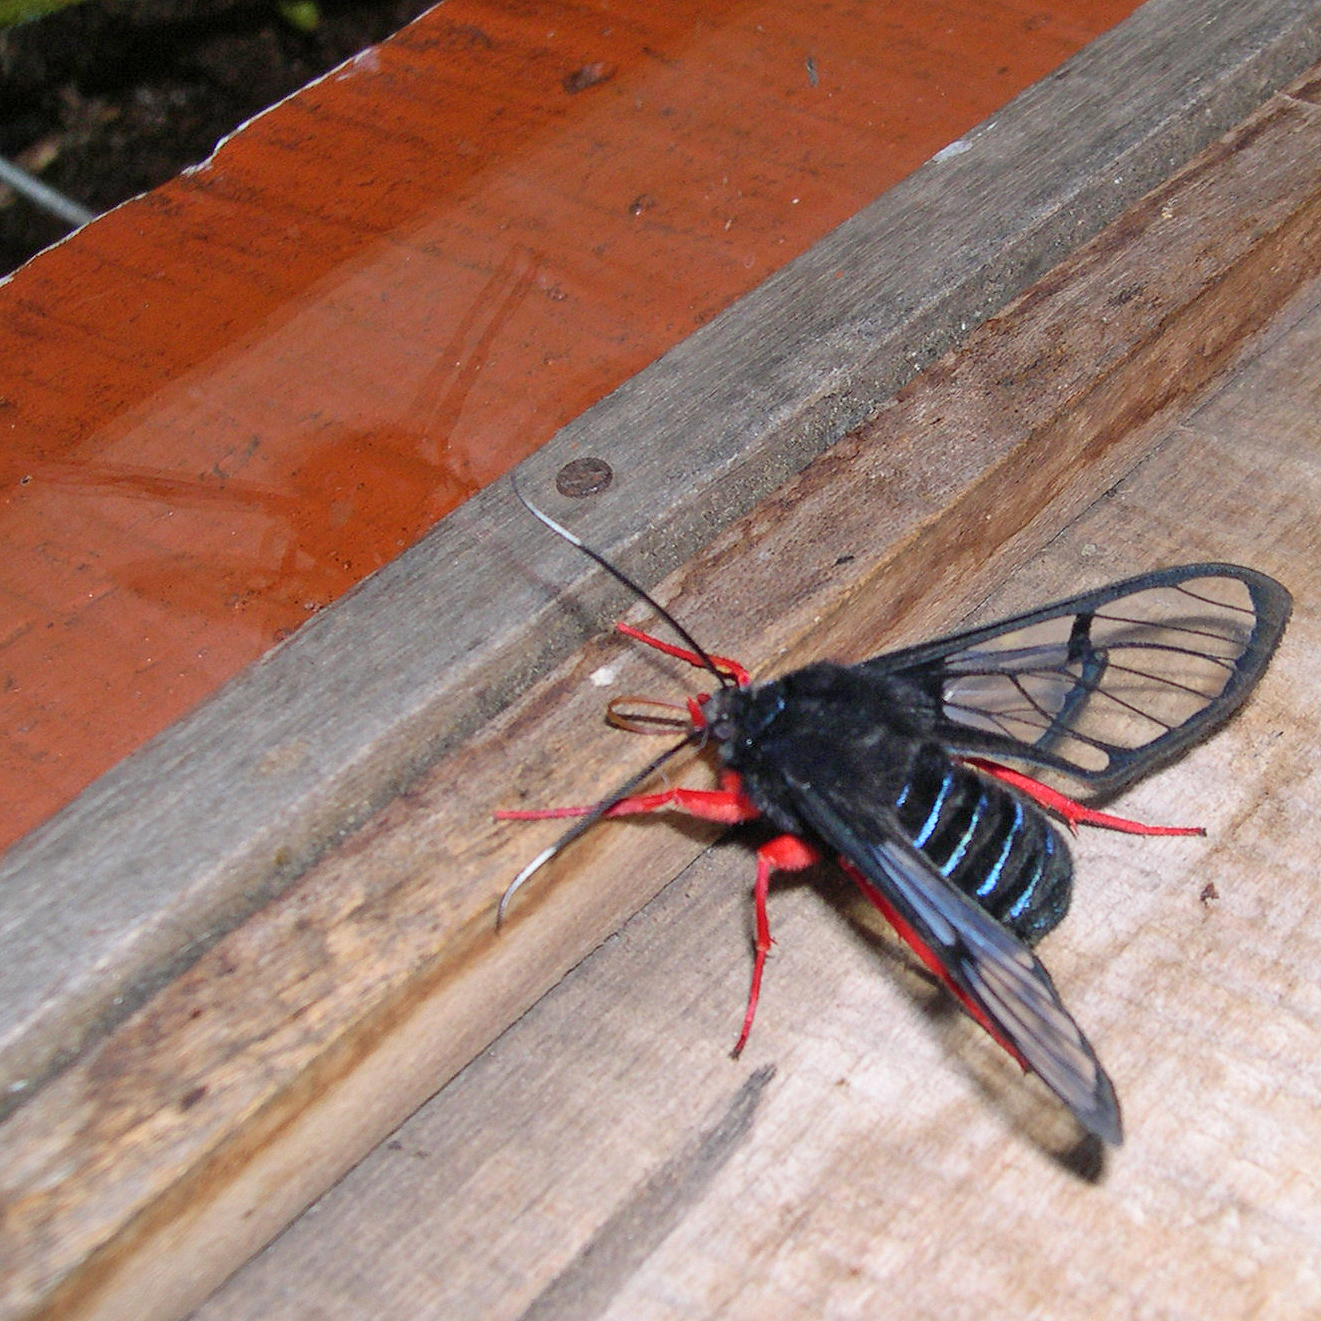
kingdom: Animalia
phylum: Arthropoda
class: Insecta
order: Lepidoptera
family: Erebidae
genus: Cosmosoma
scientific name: Cosmosoma gigantea
